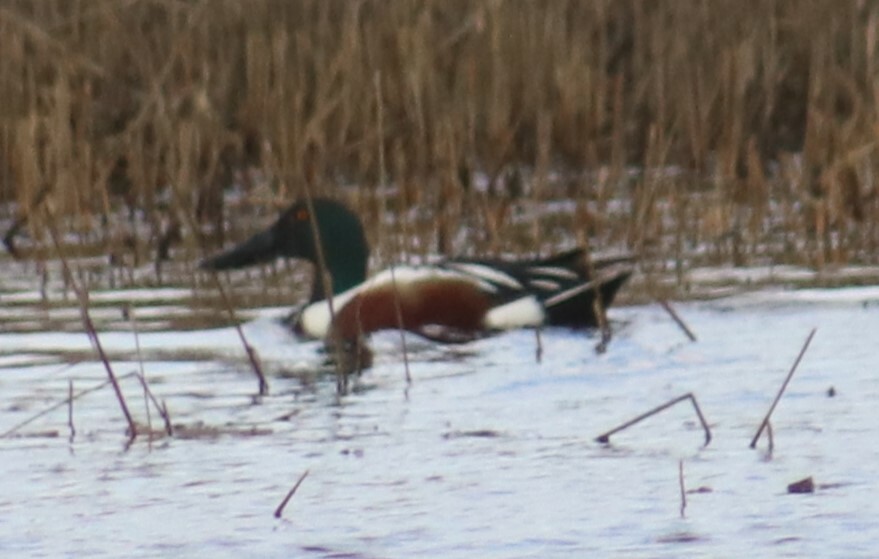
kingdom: Animalia
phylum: Chordata
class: Aves
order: Anseriformes
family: Anatidae
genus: Spatula
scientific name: Spatula clypeata
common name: Northern shoveler
